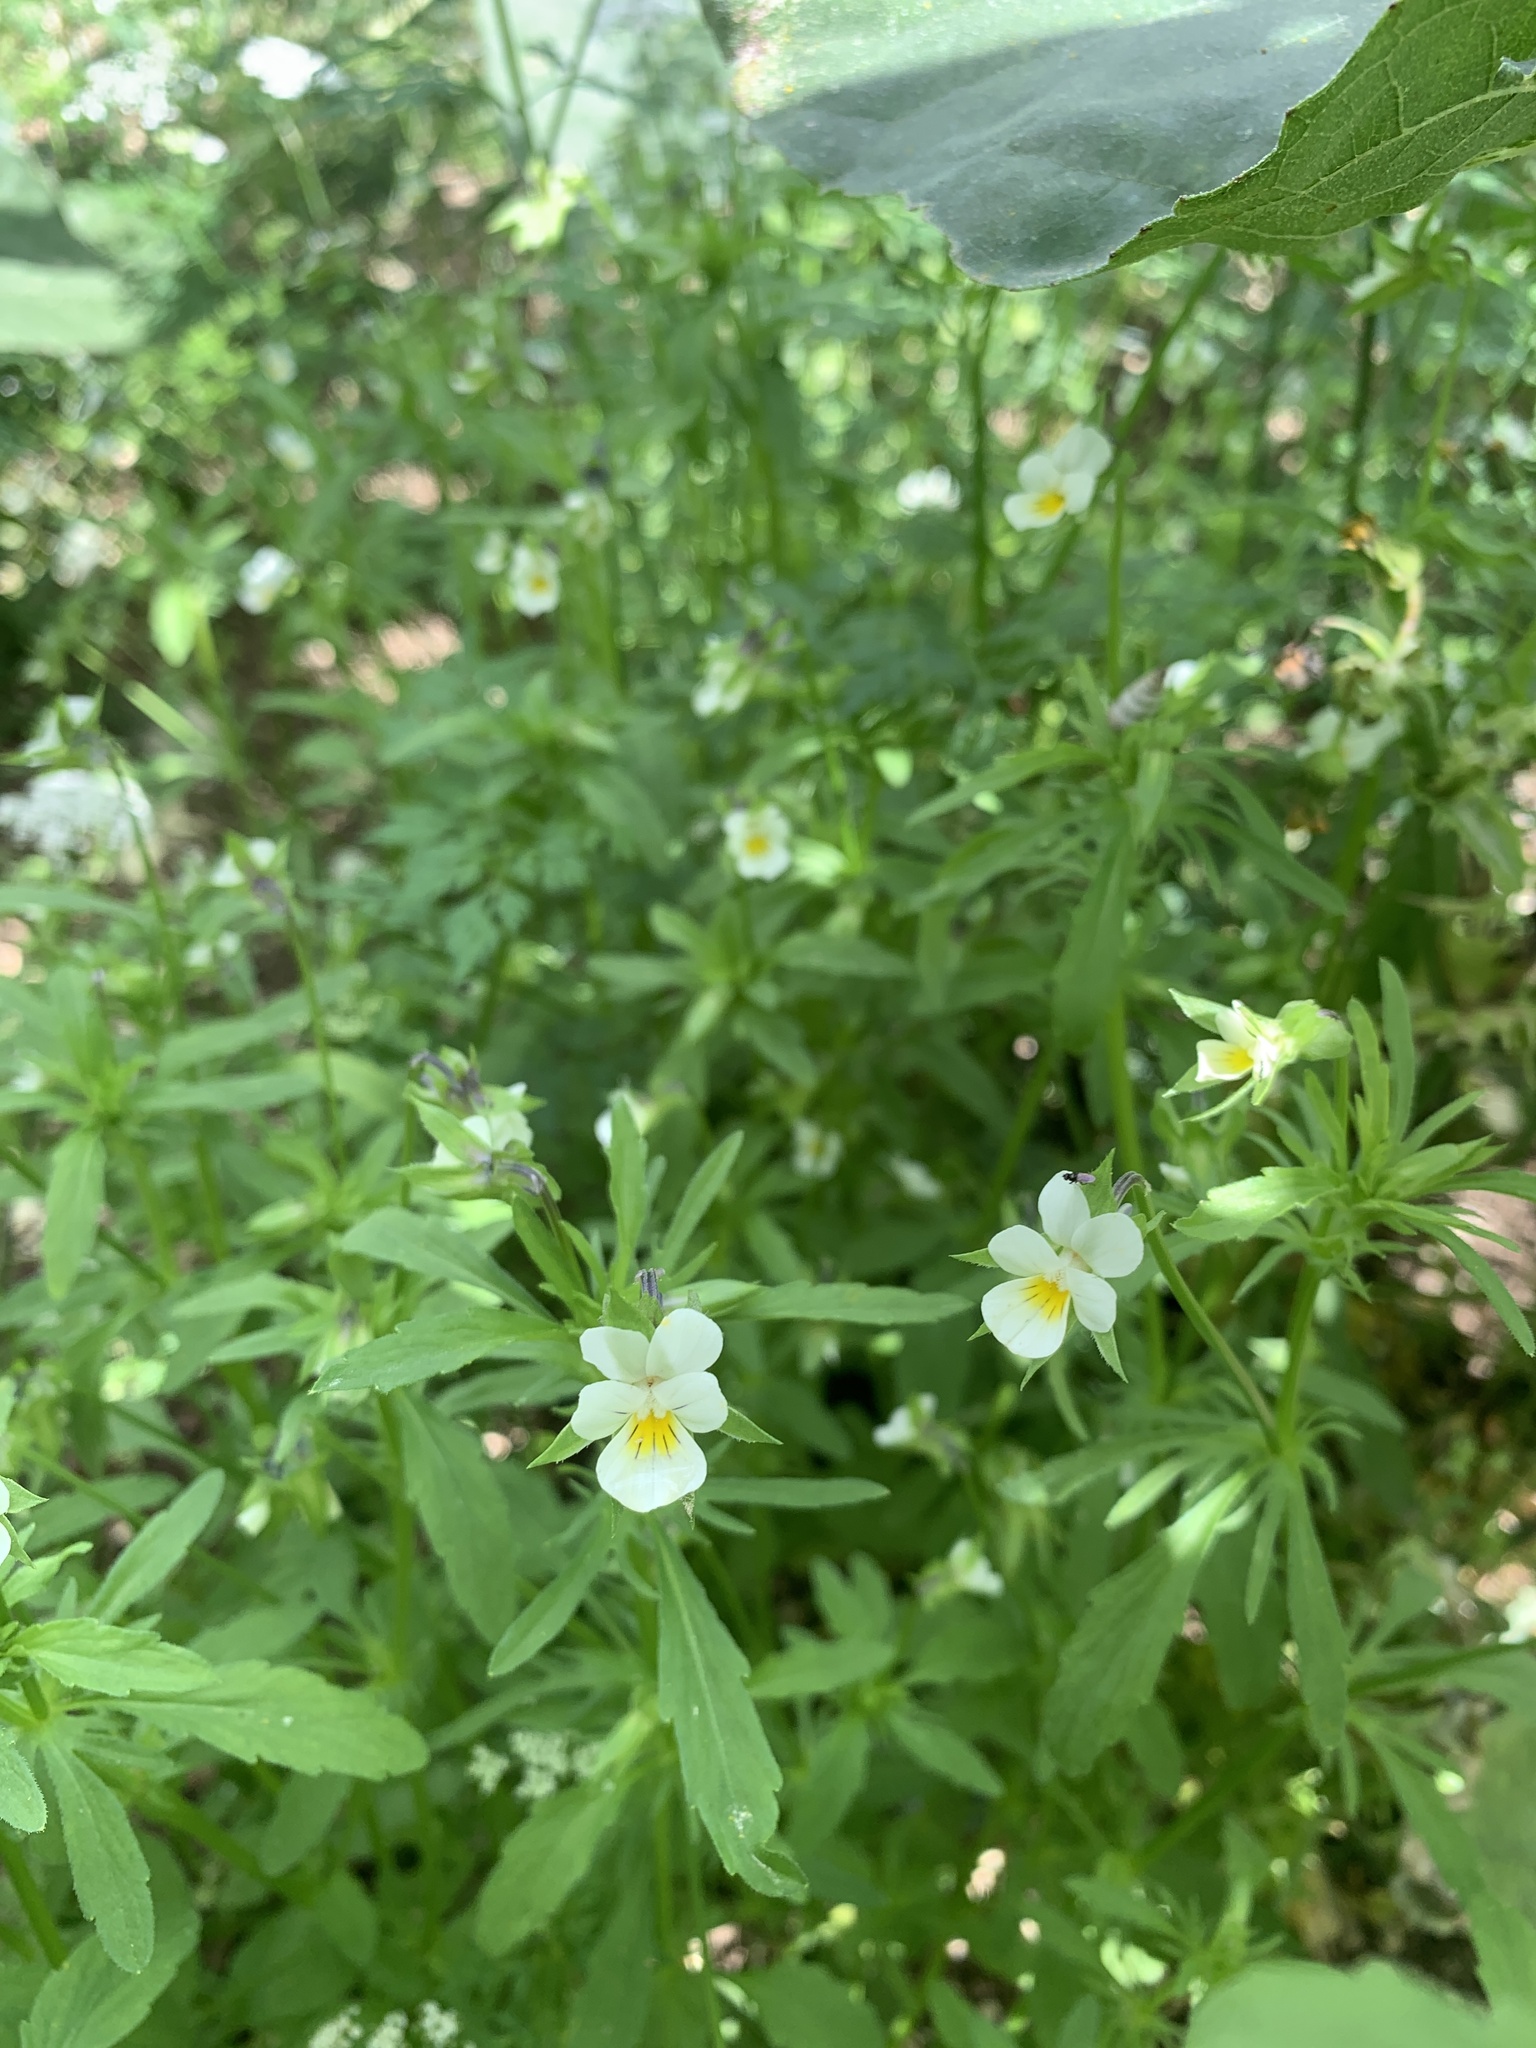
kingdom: Plantae
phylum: Tracheophyta
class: Magnoliopsida
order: Malpighiales
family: Violaceae
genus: Viola
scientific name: Viola arvensis
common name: Field pansy
